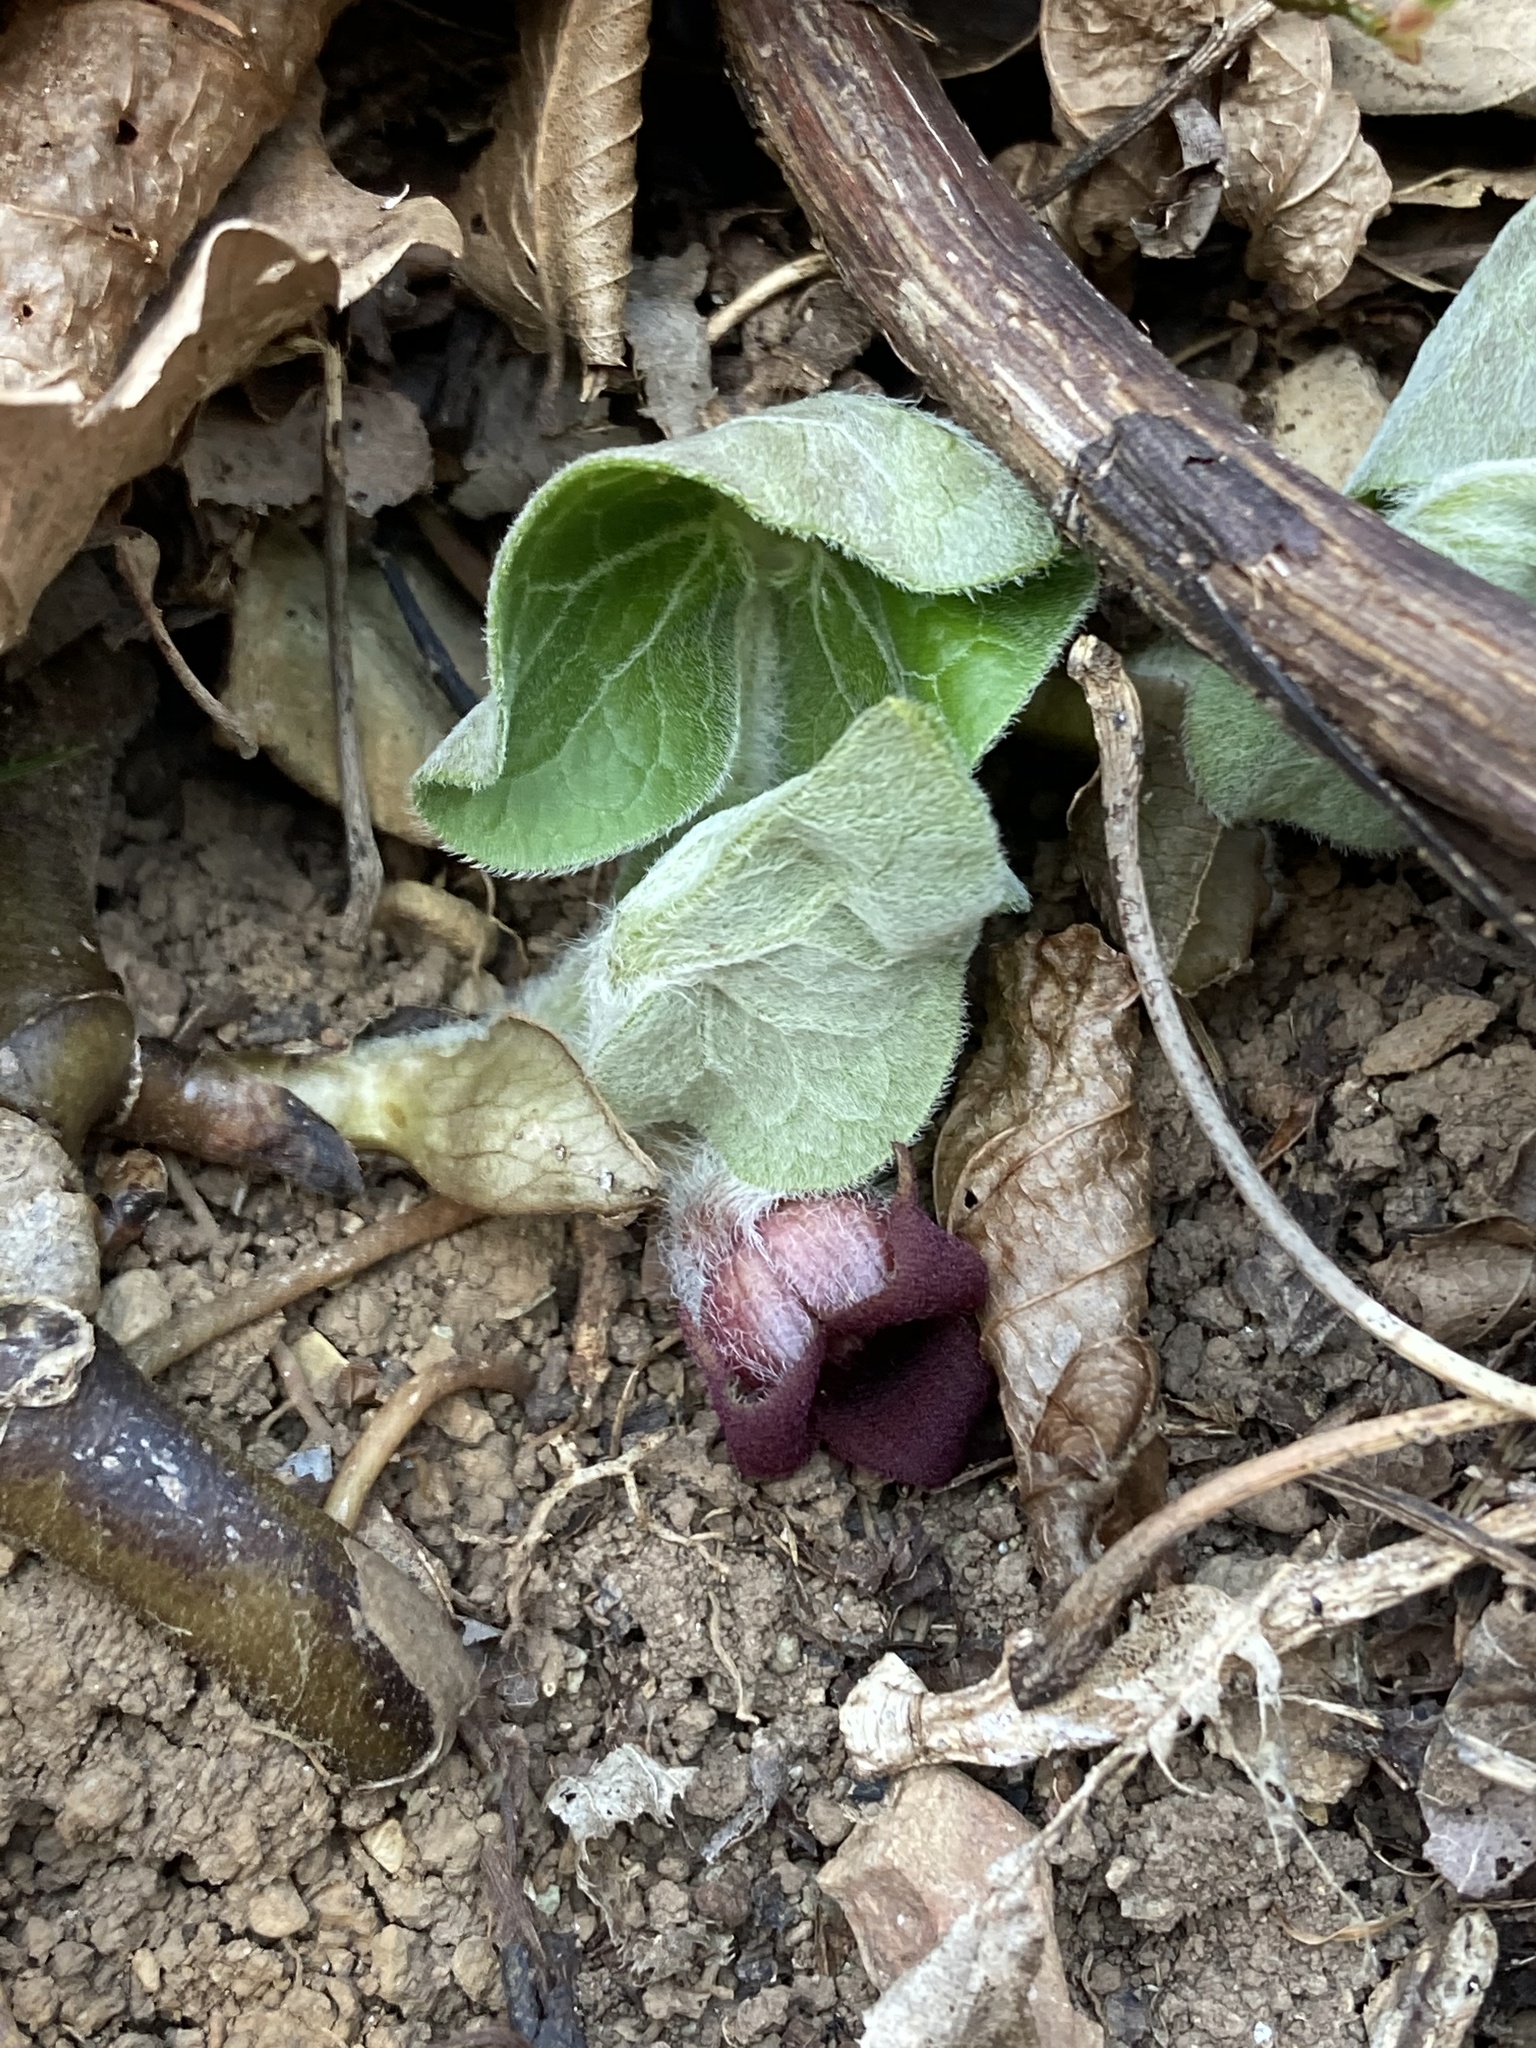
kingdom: Plantae
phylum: Tracheophyta
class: Magnoliopsida
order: Piperales
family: Aristolochiaceae
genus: Asarum
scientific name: Asarum canadense
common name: Wild ginger
